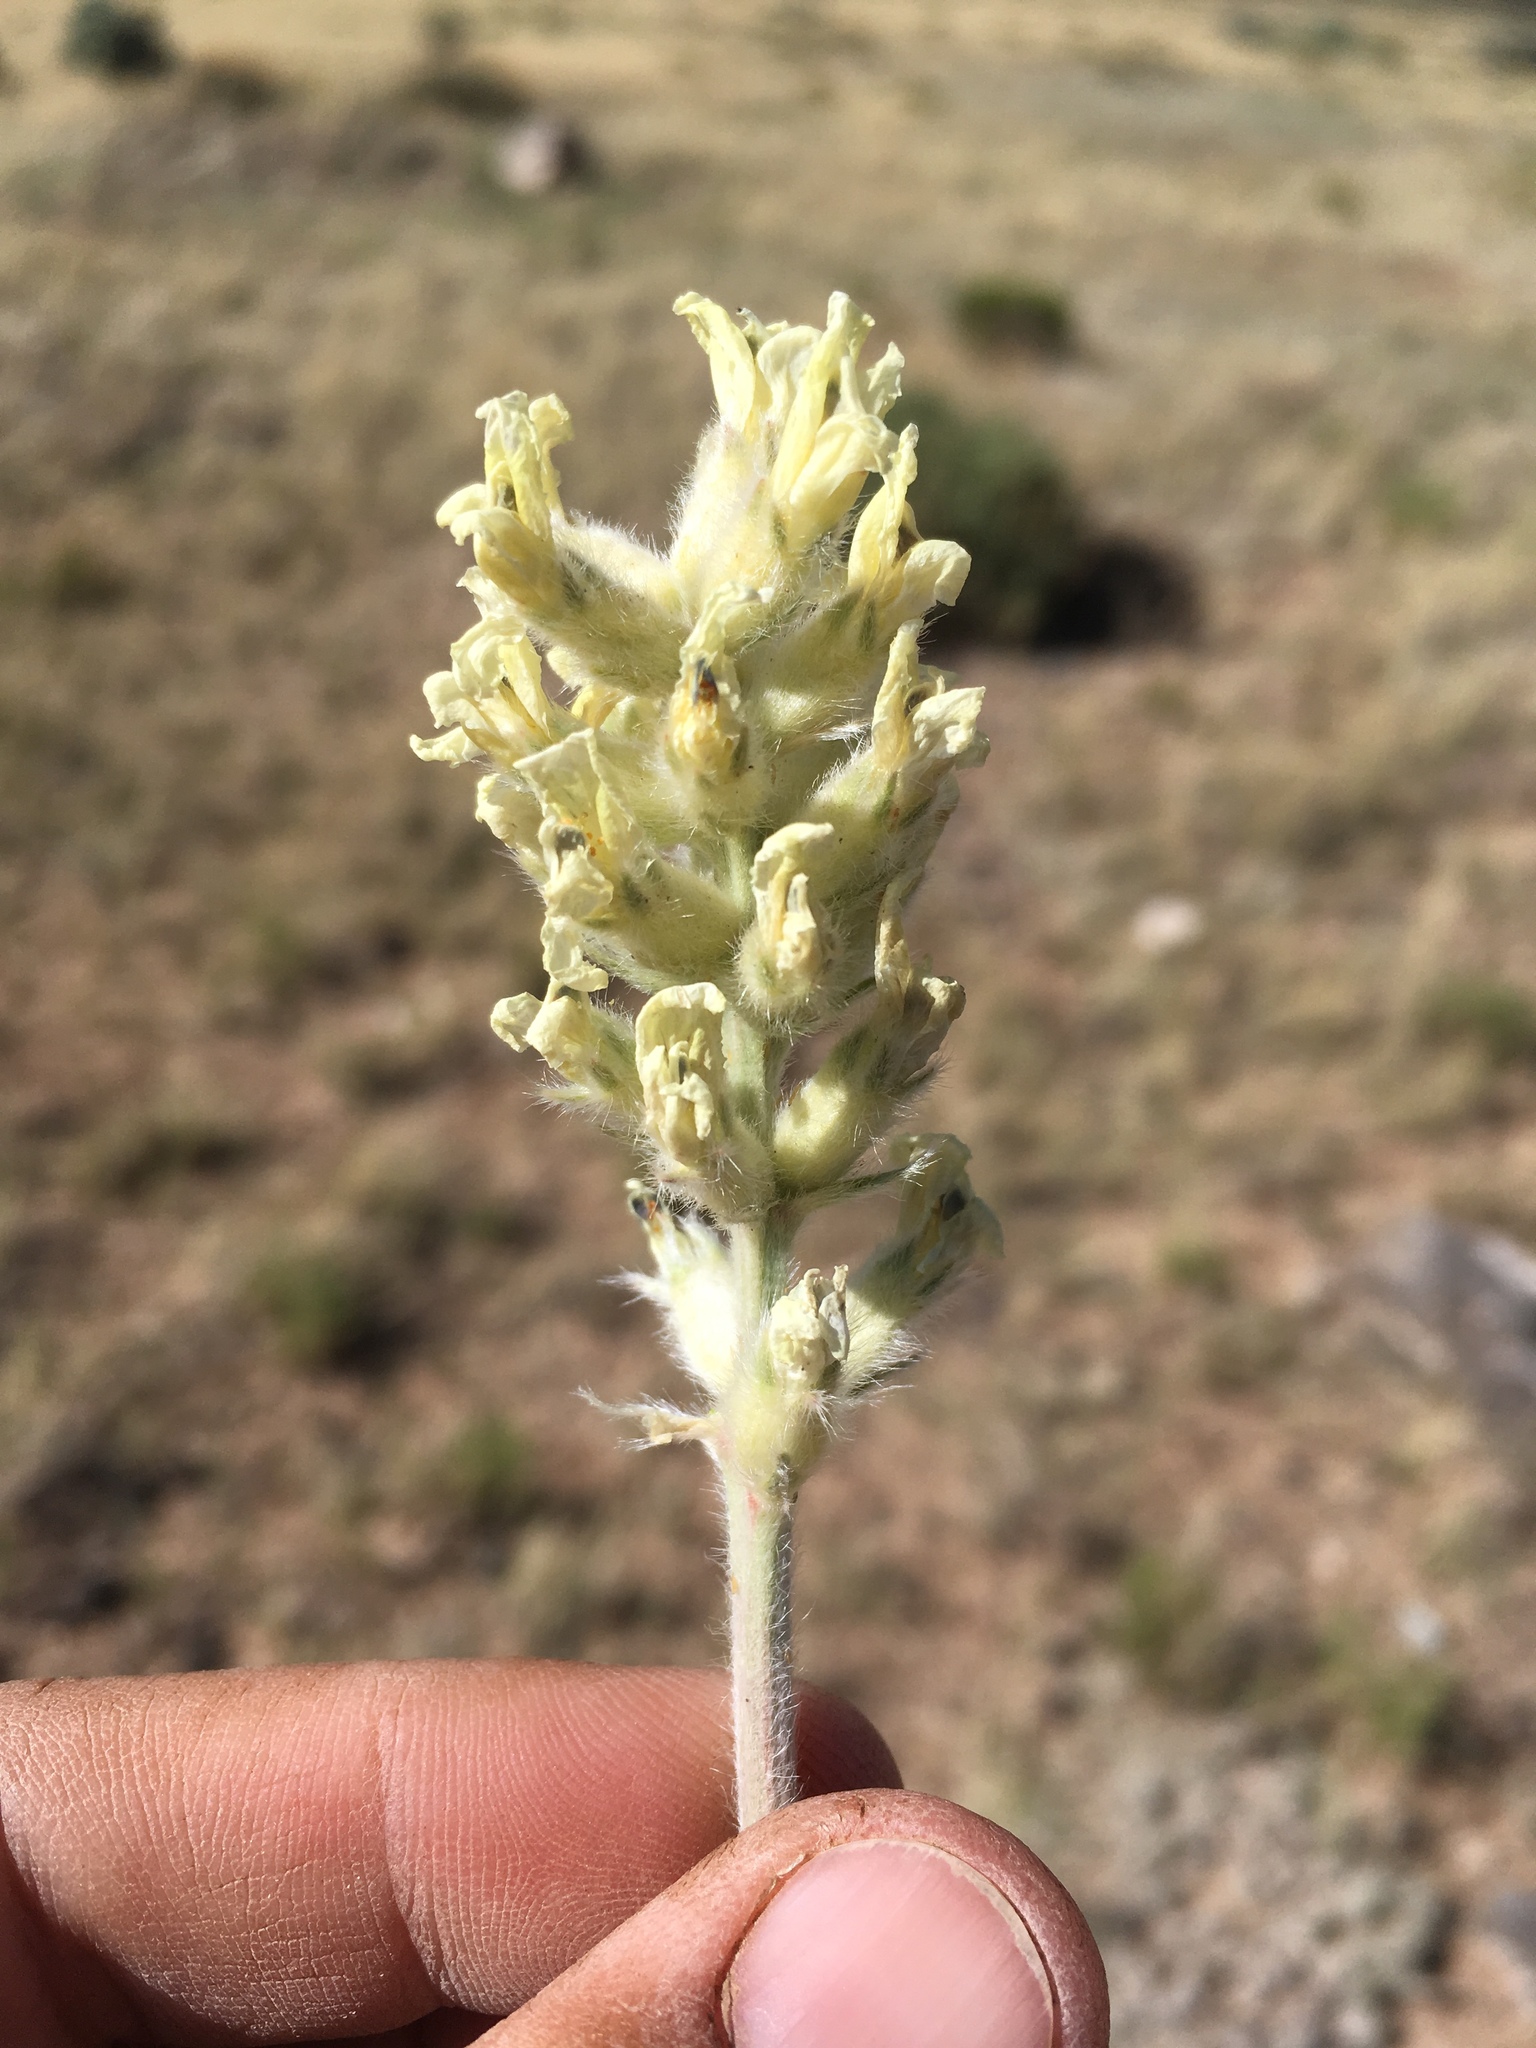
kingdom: Plantae
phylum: Tracheophyta
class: Magnoliopsida
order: Fabales
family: Fabaceae
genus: Oxytropis
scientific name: Oxytropis sericea
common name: Silky locoweed
